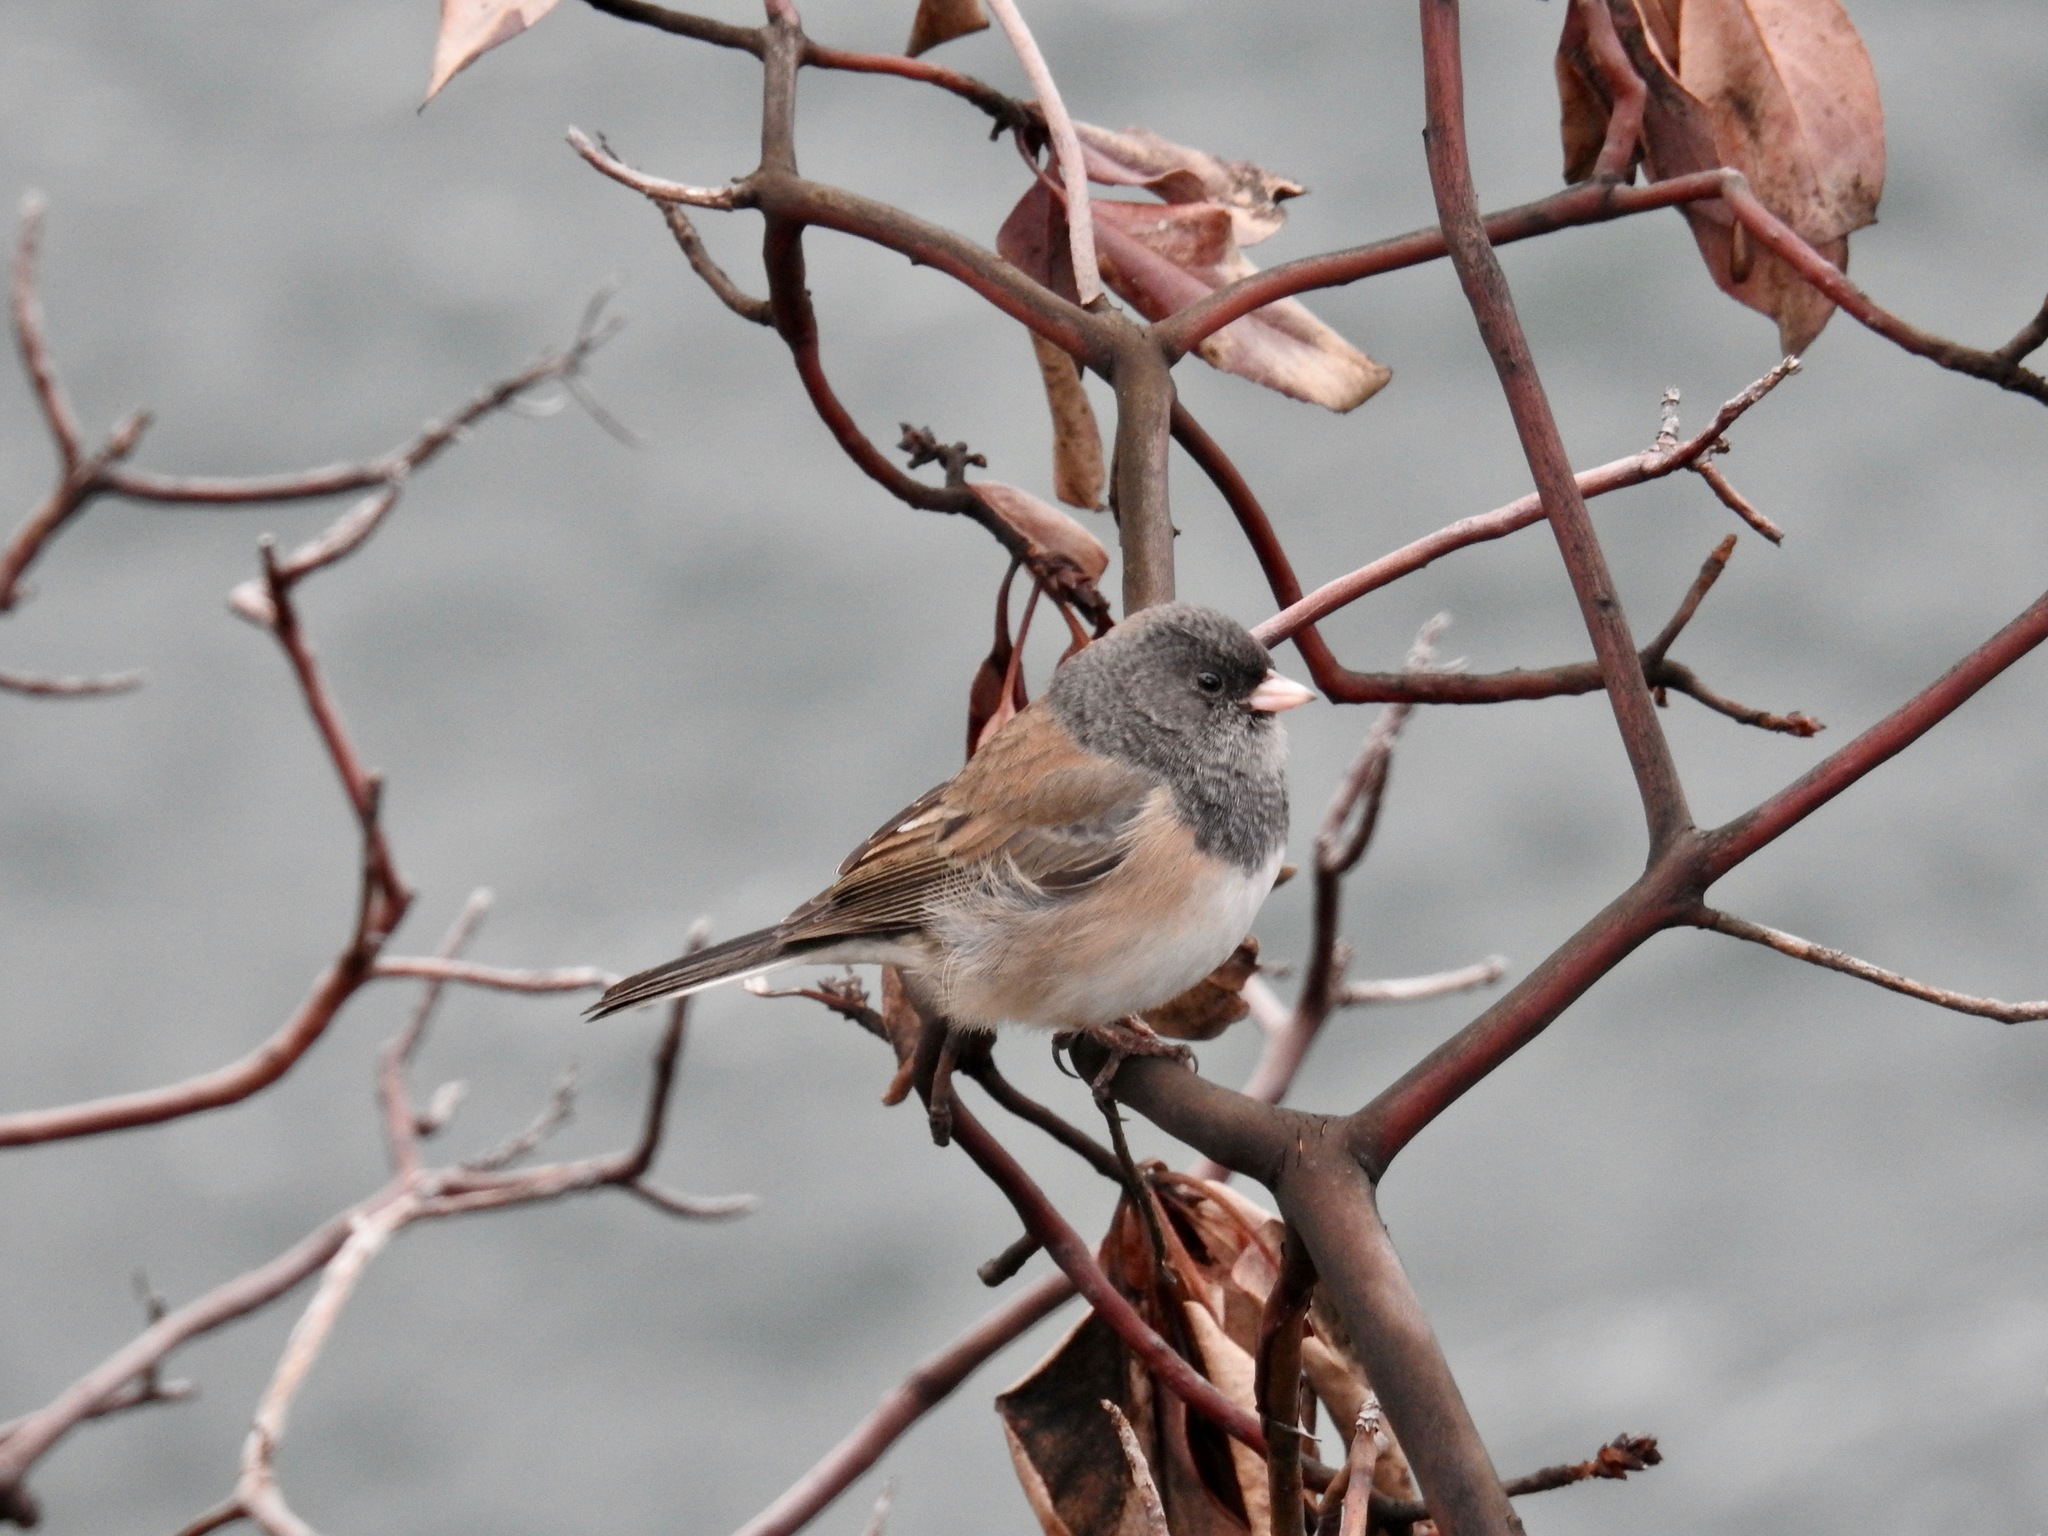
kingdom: Animalia
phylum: Chordata
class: Aves
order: Passeriformes
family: Passerellidae
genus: Junco
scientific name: Junco hyemalis
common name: Dark-eyed junco
